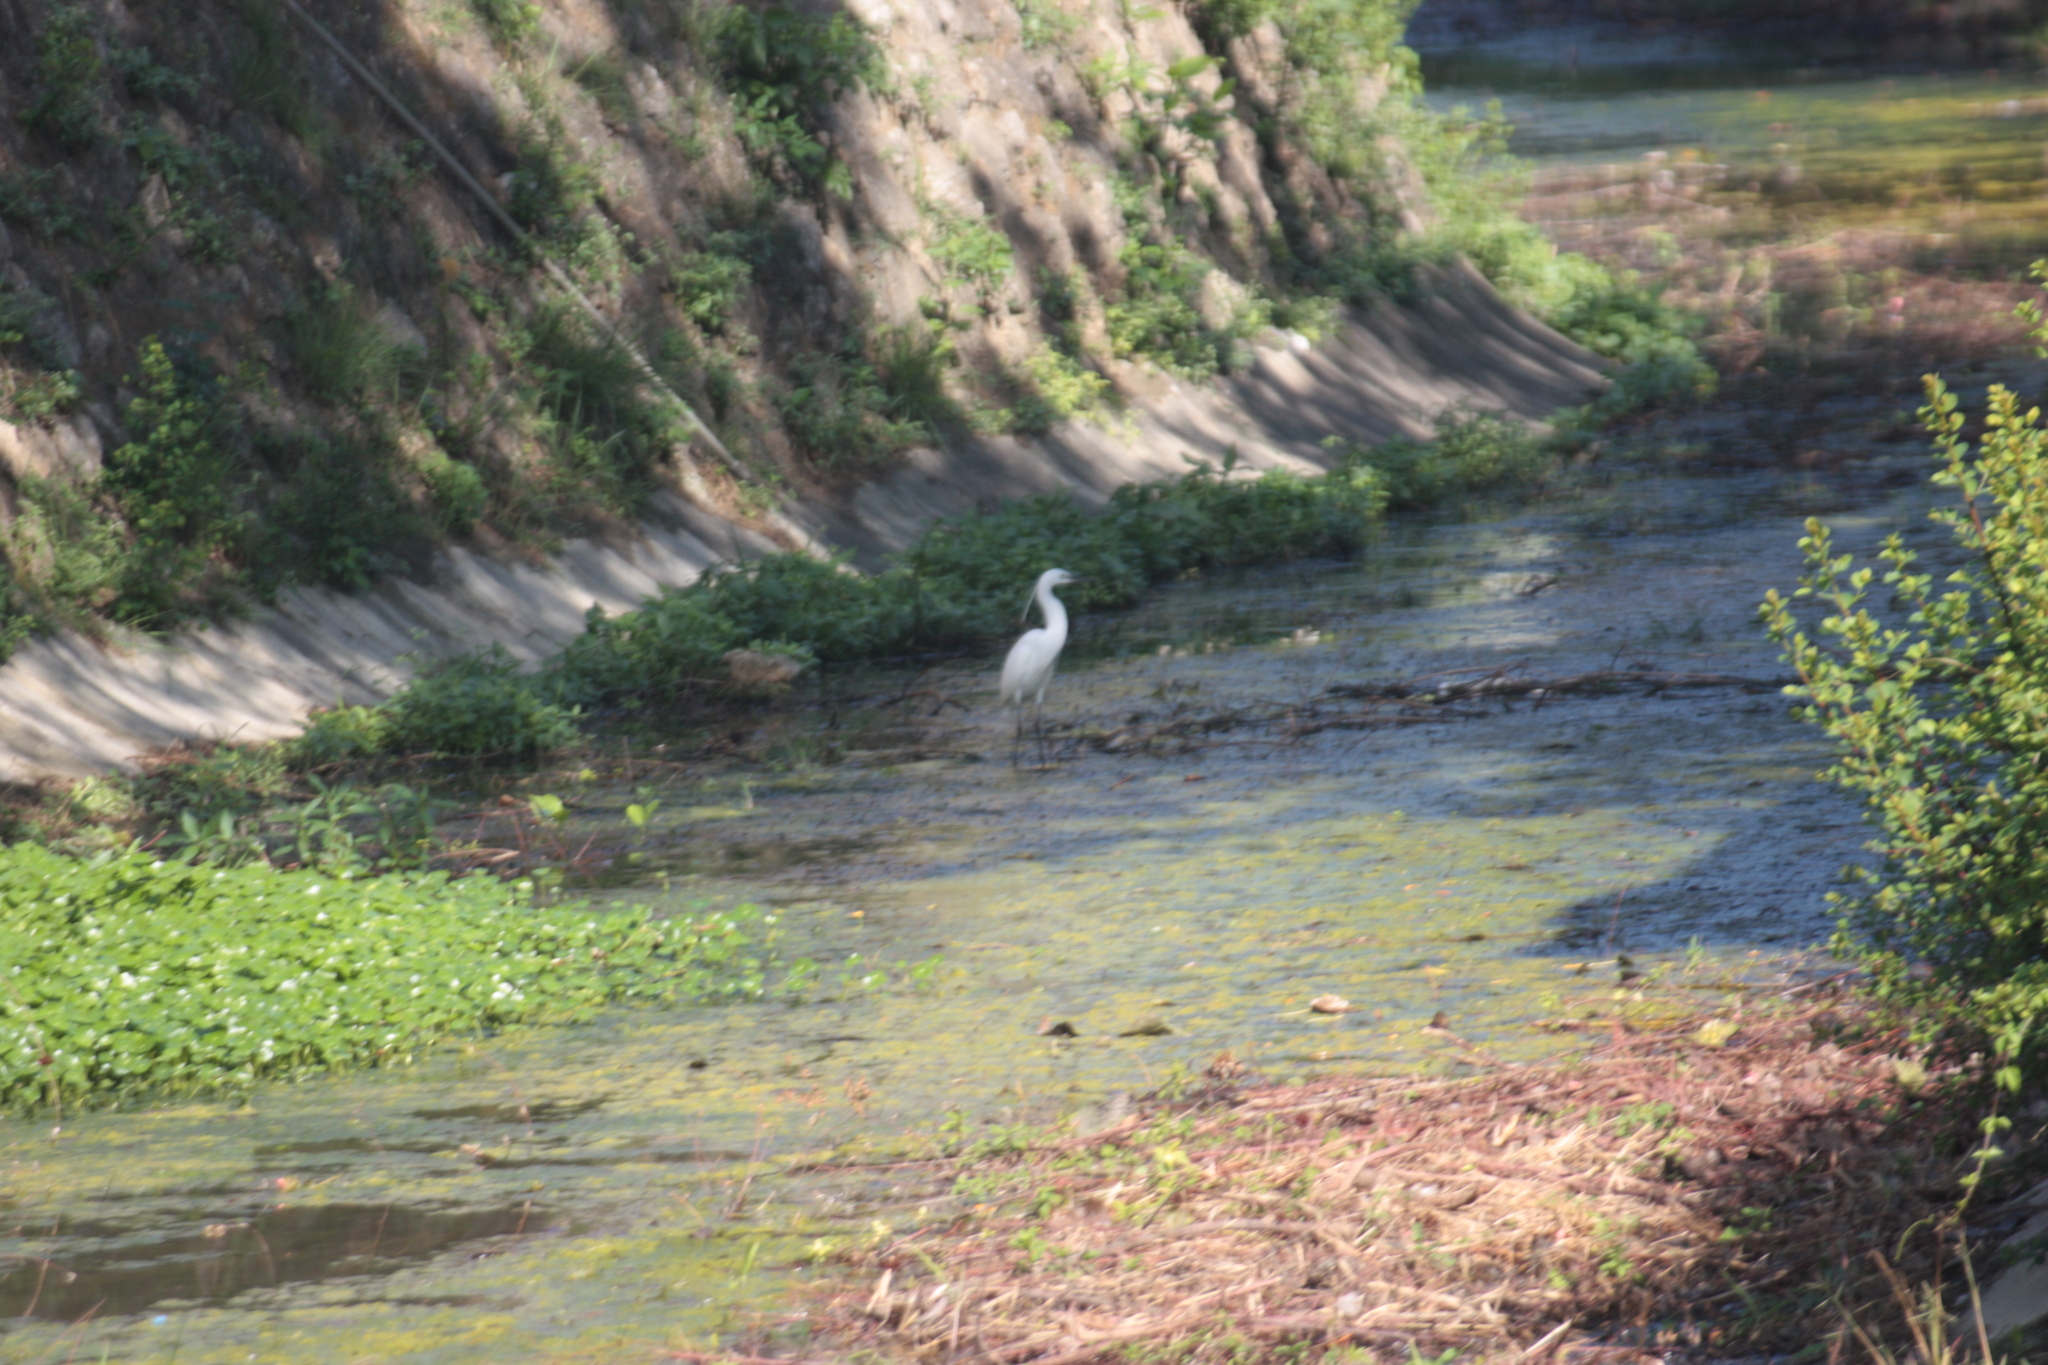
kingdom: Animalia
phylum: Chordata
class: Aves
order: Pelecaniformes
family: Ardeidae
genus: Egretta
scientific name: Egretta garzetta
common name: Little egret
